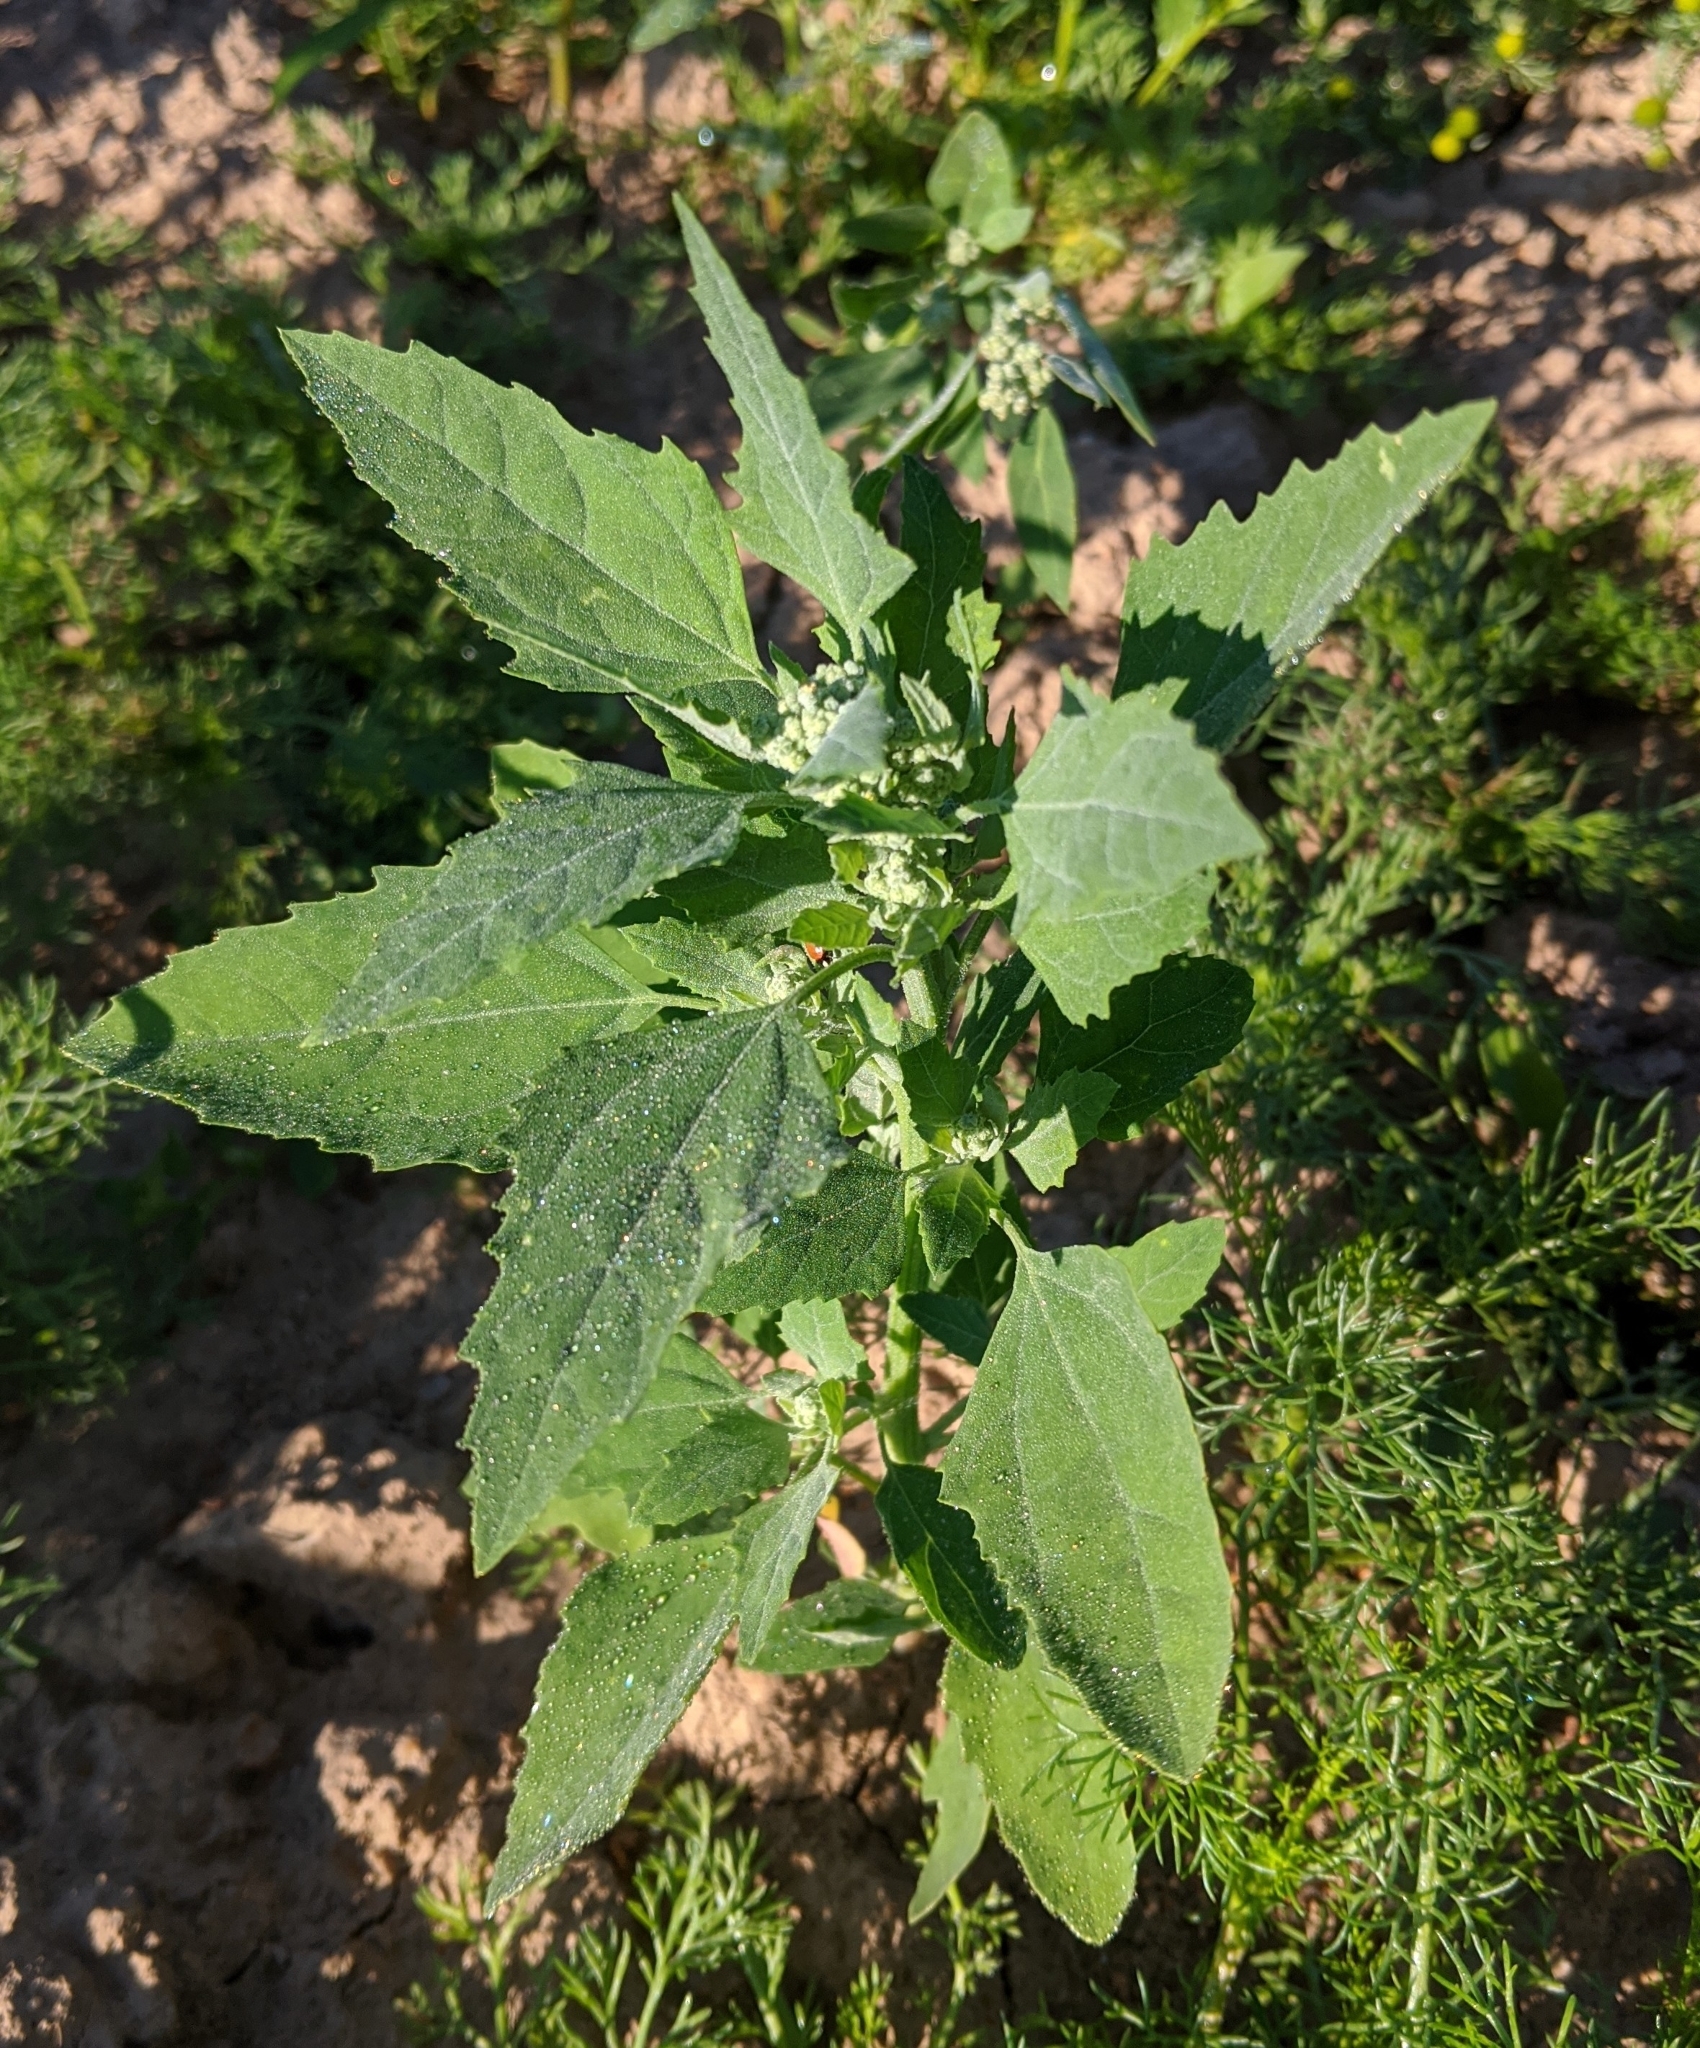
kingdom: Plantae
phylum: Tracheophyta
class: Magnoliopsida
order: Caryophyllales
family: Amaranthaceae
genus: Chenopodium
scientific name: Chenopodium album
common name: Fat-hen
